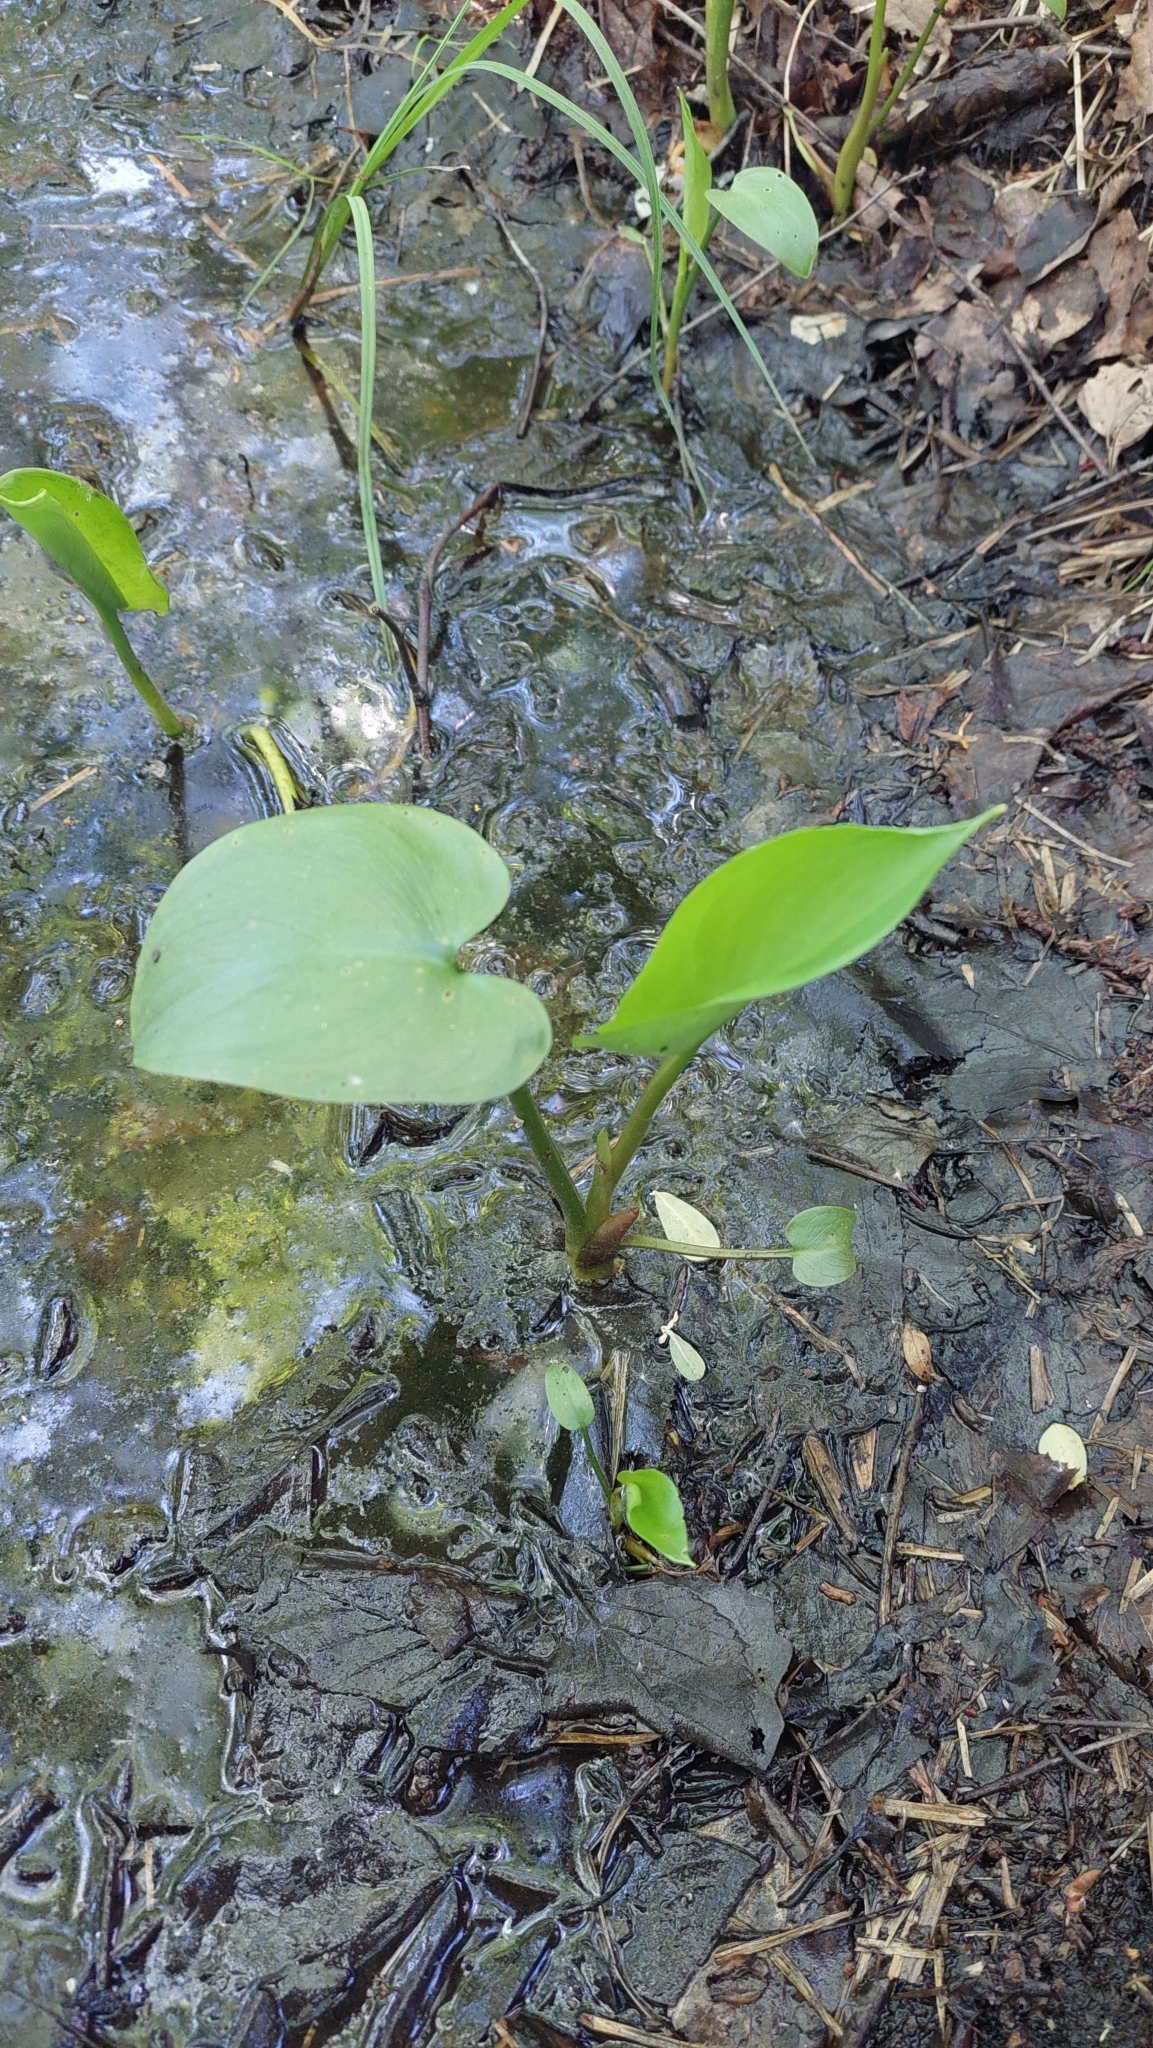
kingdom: Plantae
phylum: Tracheophyta
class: Liliopsida
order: Alismatales
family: Araceae
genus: Calla
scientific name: Calla palustris
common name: Bog arum
